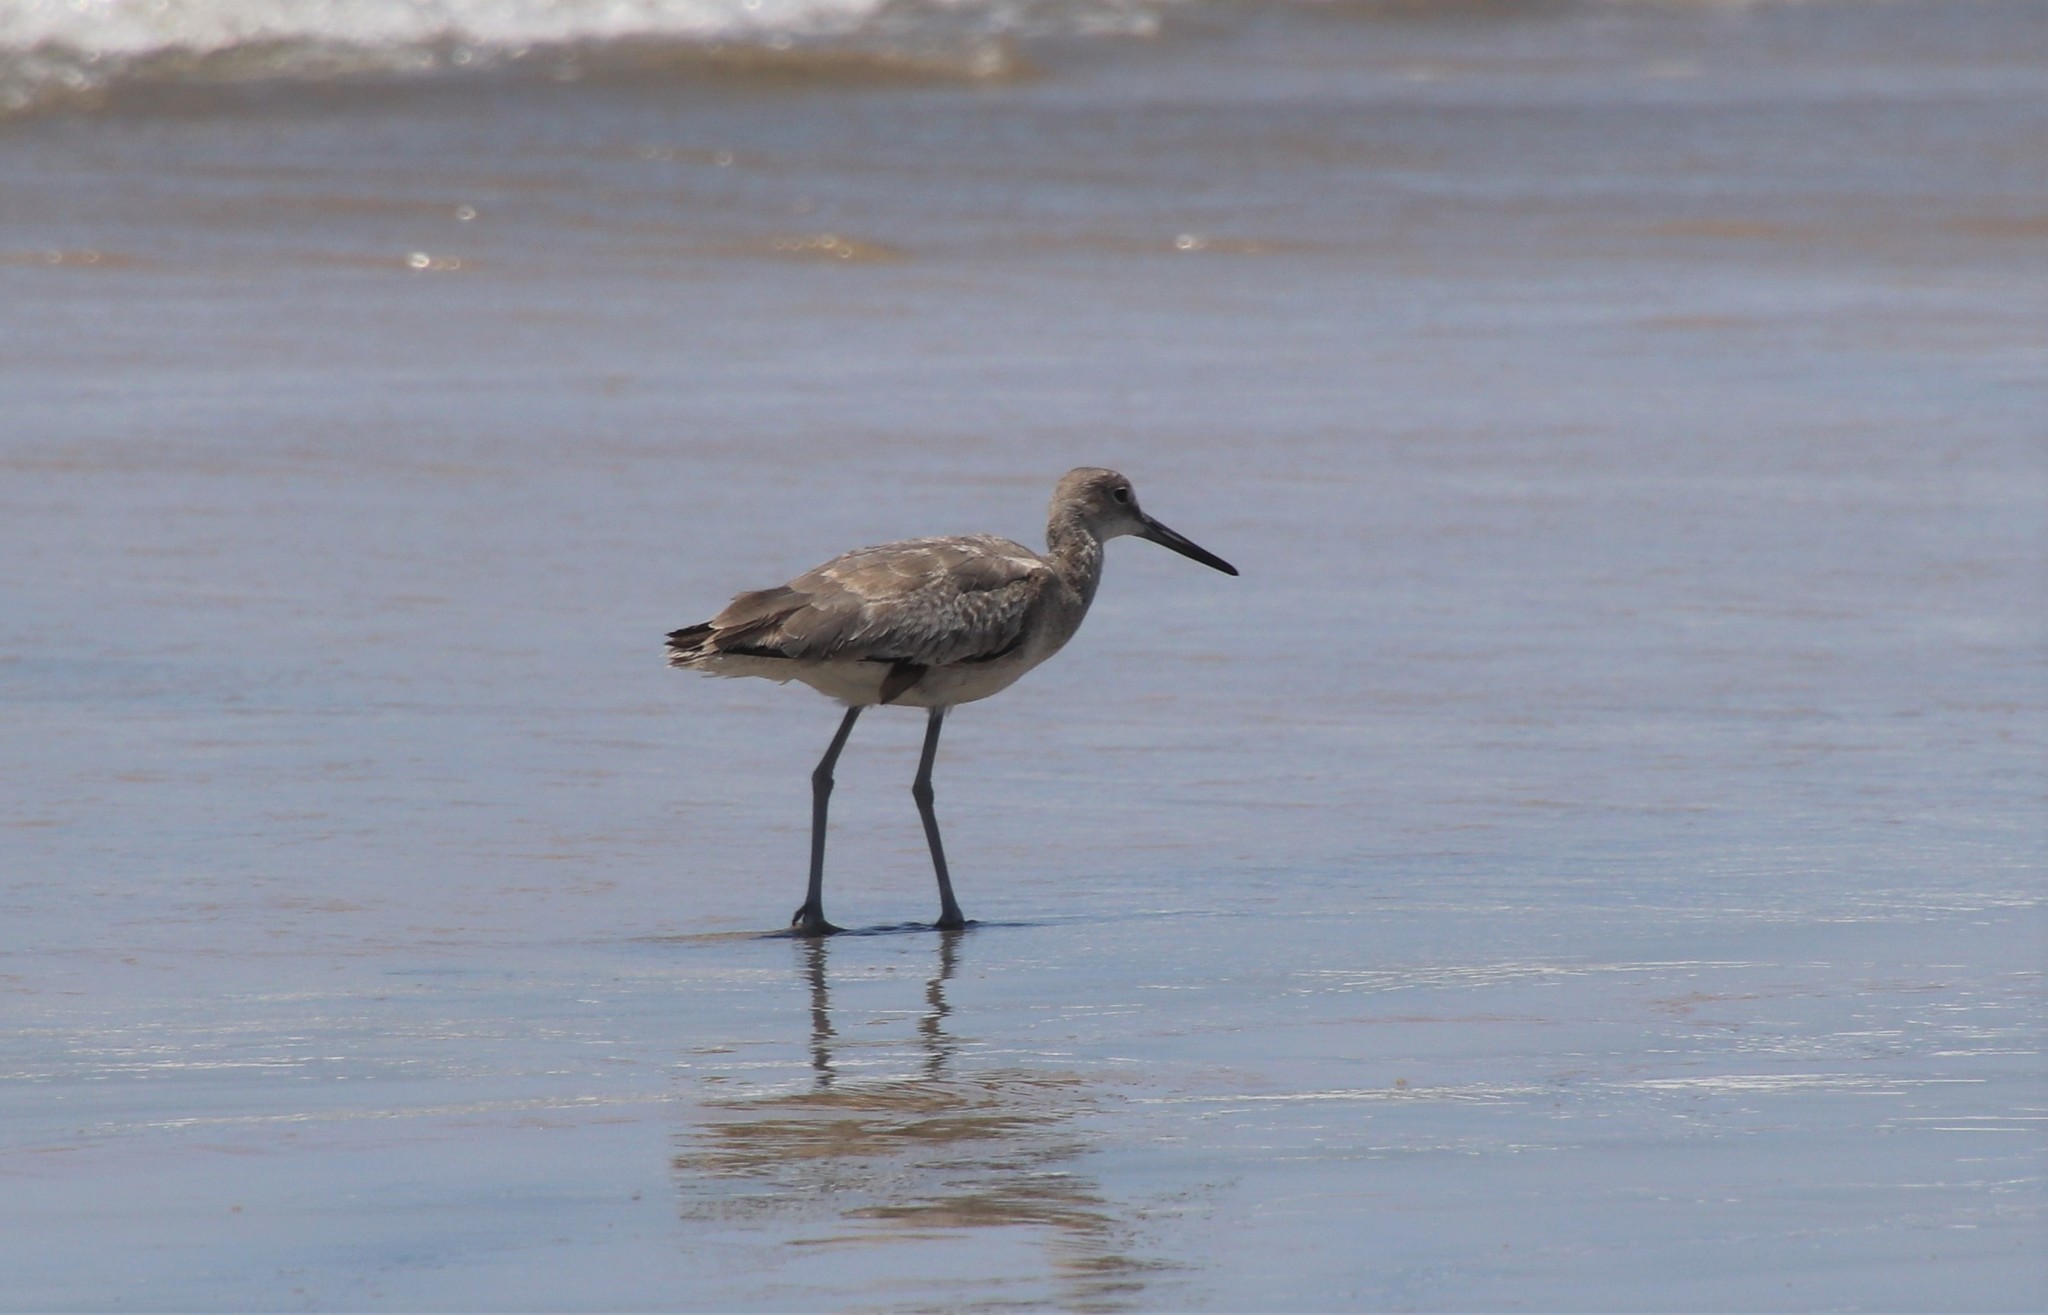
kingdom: Animalia
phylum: Chordata
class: Aves
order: Charadriiformes
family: Scolopacidae
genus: Tringa
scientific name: Tringa semipalmata
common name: Willet
